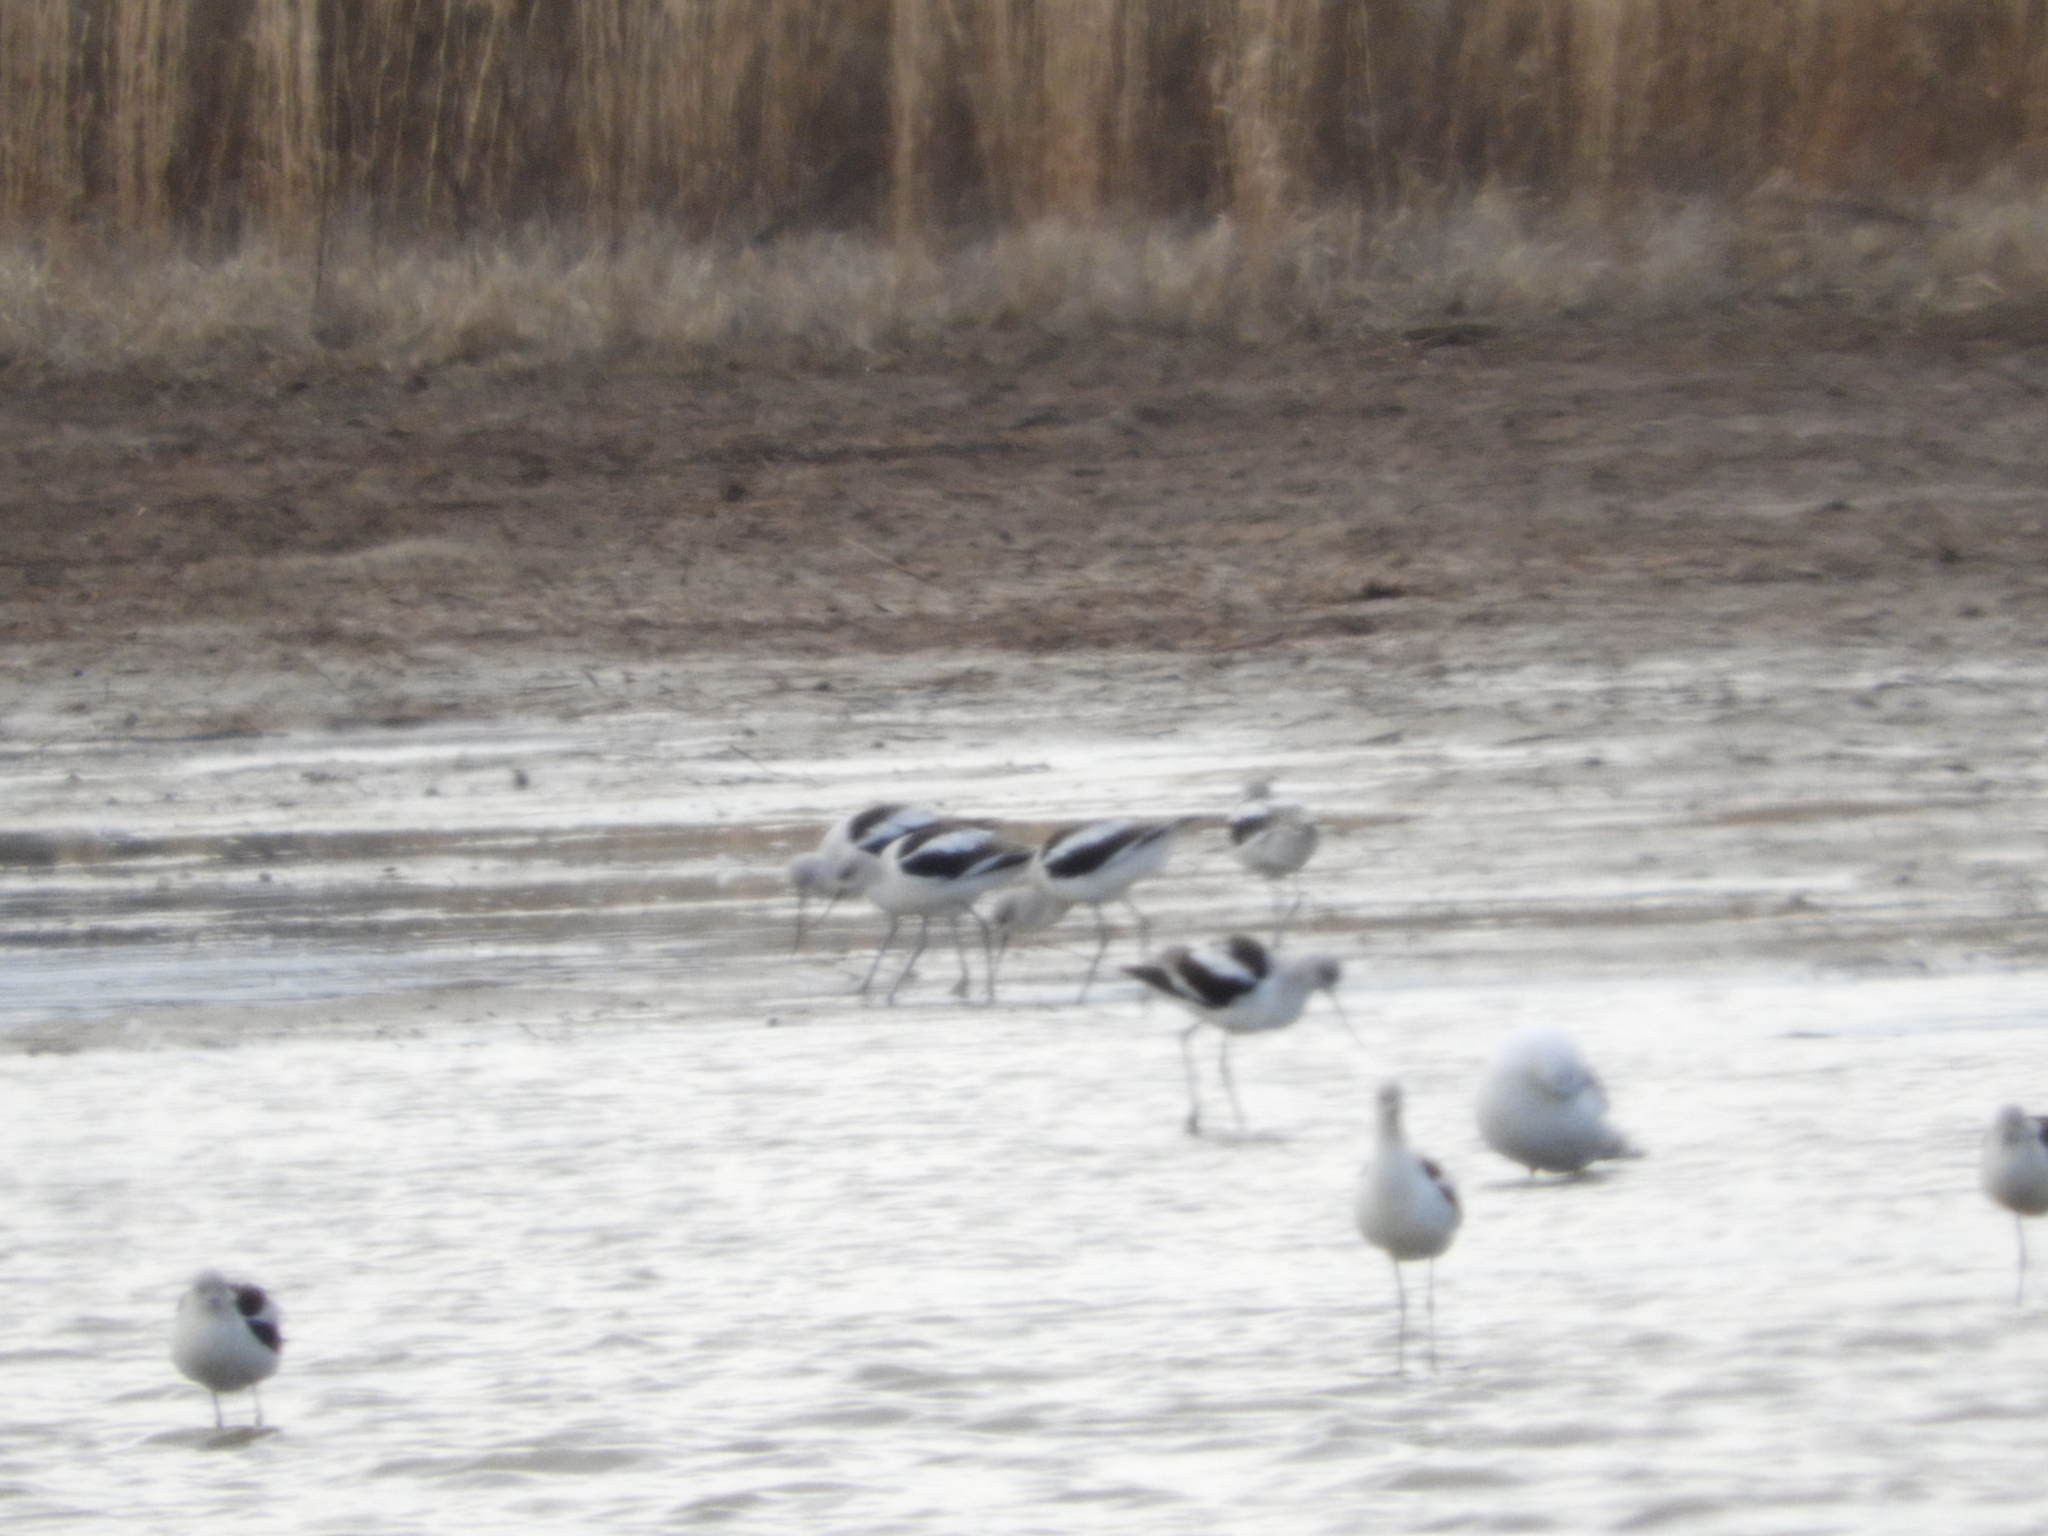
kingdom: Animalia
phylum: Chordata
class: Aves
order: Charadriiformes
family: Recurvirostridae
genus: Recurvirostra
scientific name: Recurvirostra americana
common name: American avocet
